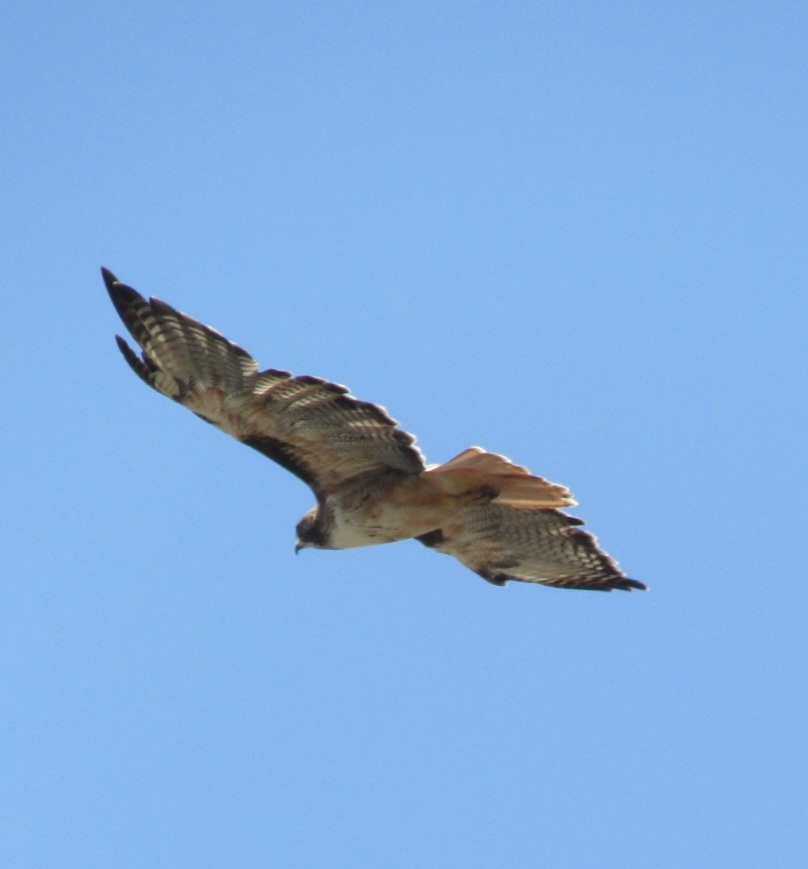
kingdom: Animalia
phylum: Chordata
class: Aves
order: Accipitriformes
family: Accipitridae
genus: Buteo
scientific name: Buteo jamaicensis
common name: Red-tailed hawk
